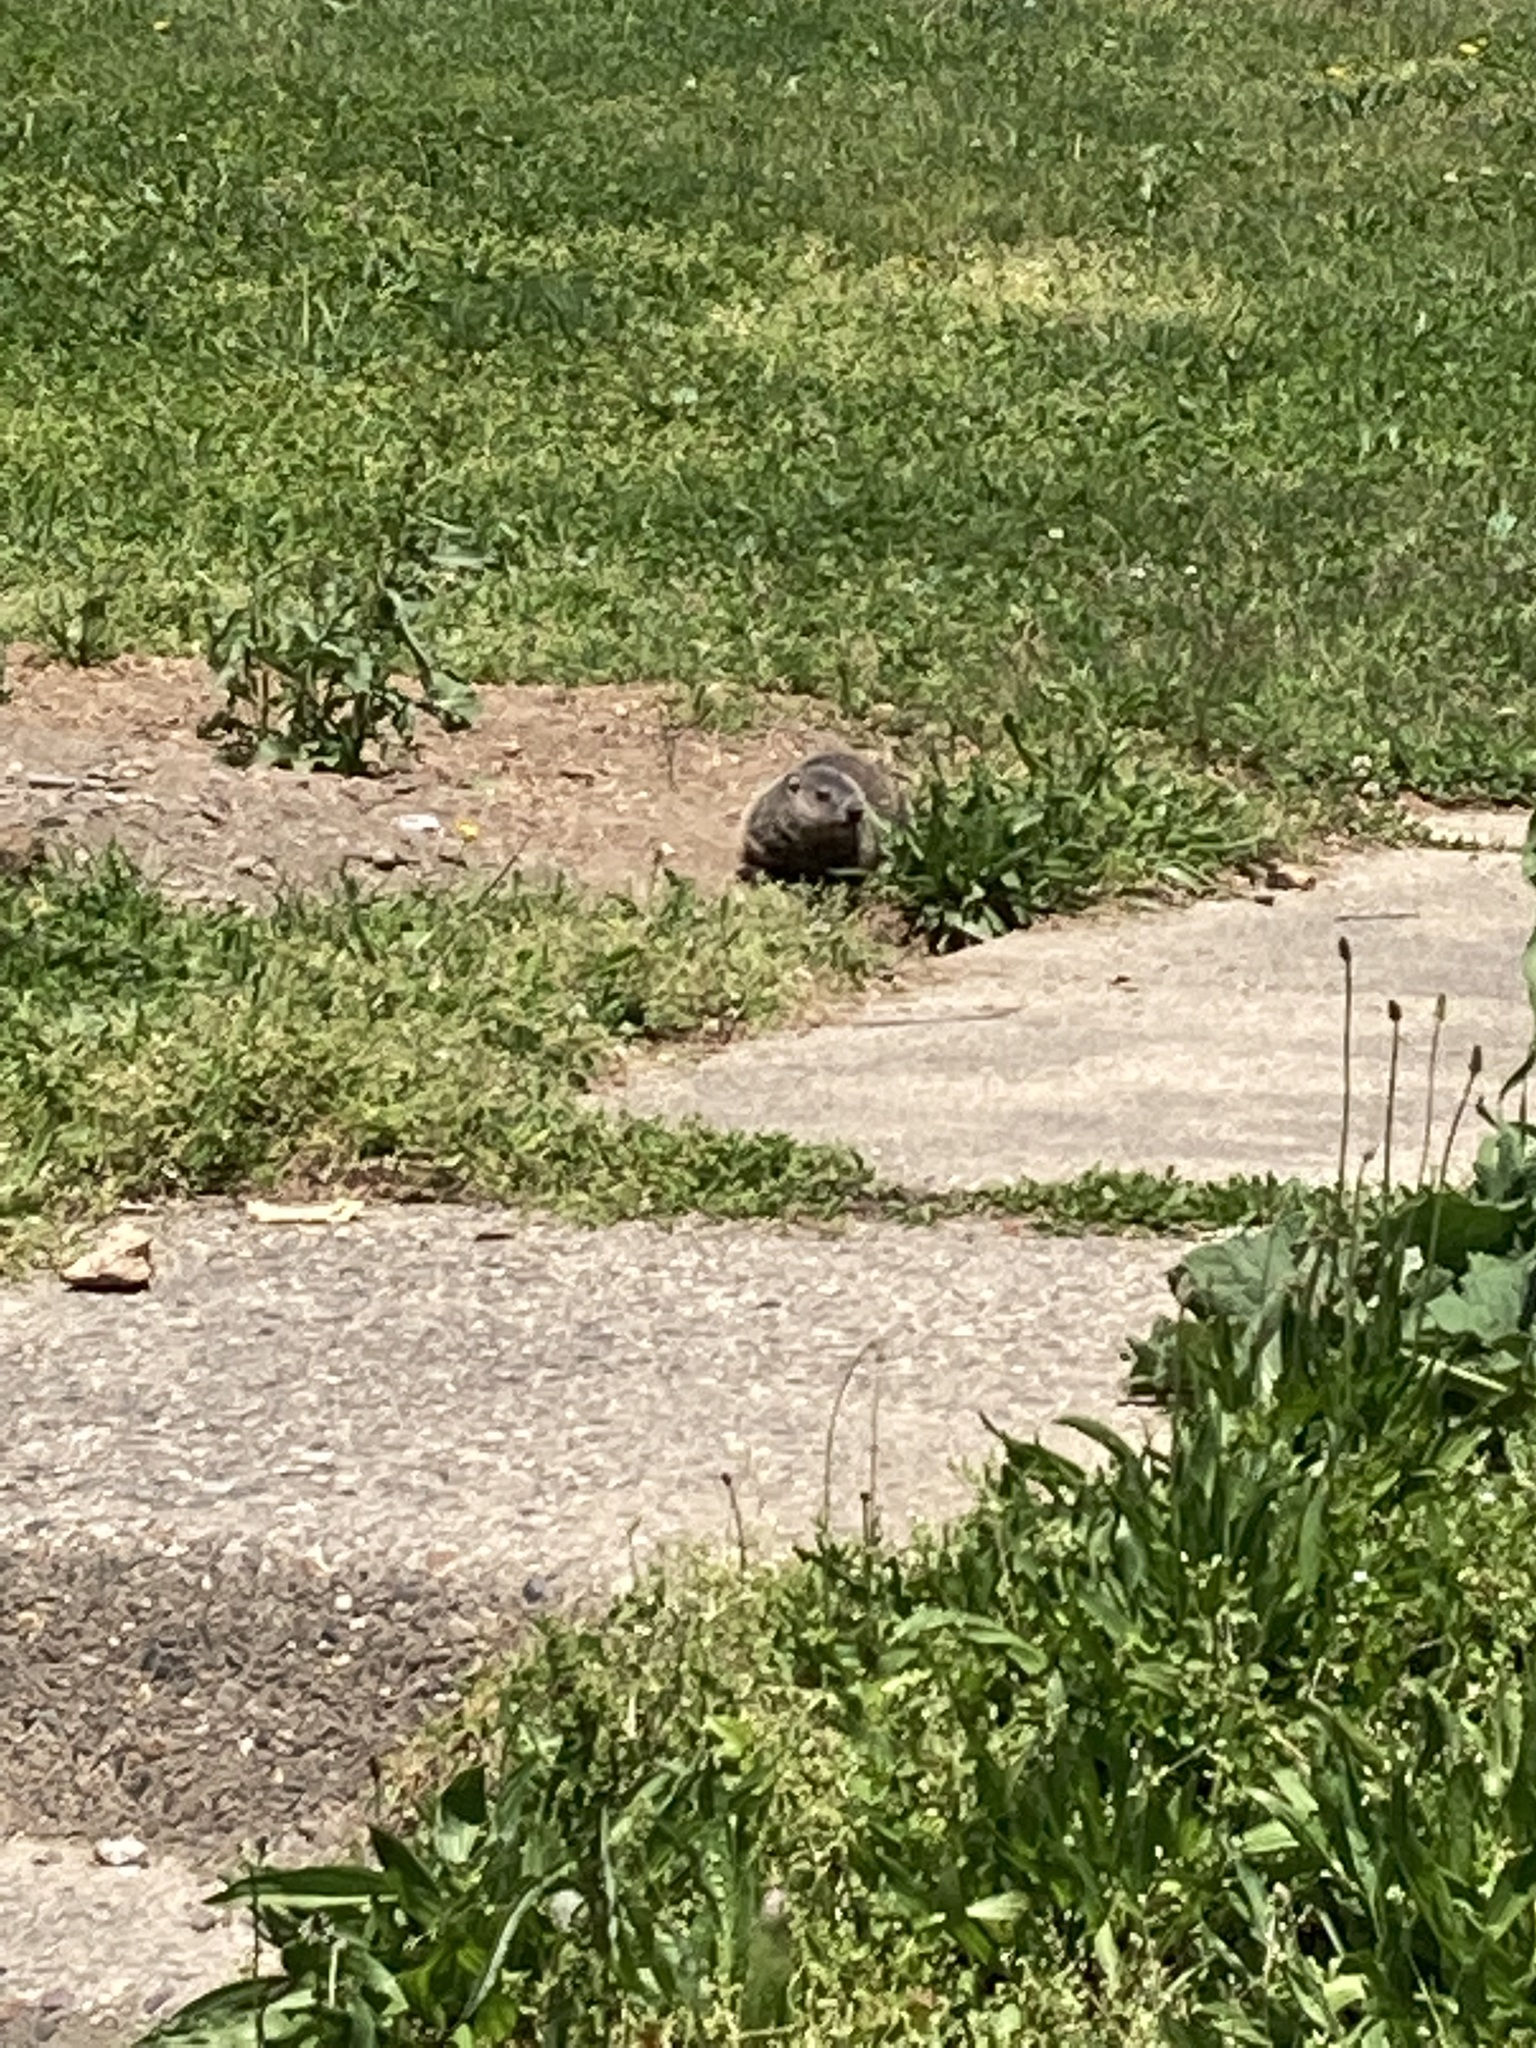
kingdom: Animalia
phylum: Chordata
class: Mammalia
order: Rodentia
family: Sciuridae
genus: Marmota
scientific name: Marmota monax
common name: Groundhog
